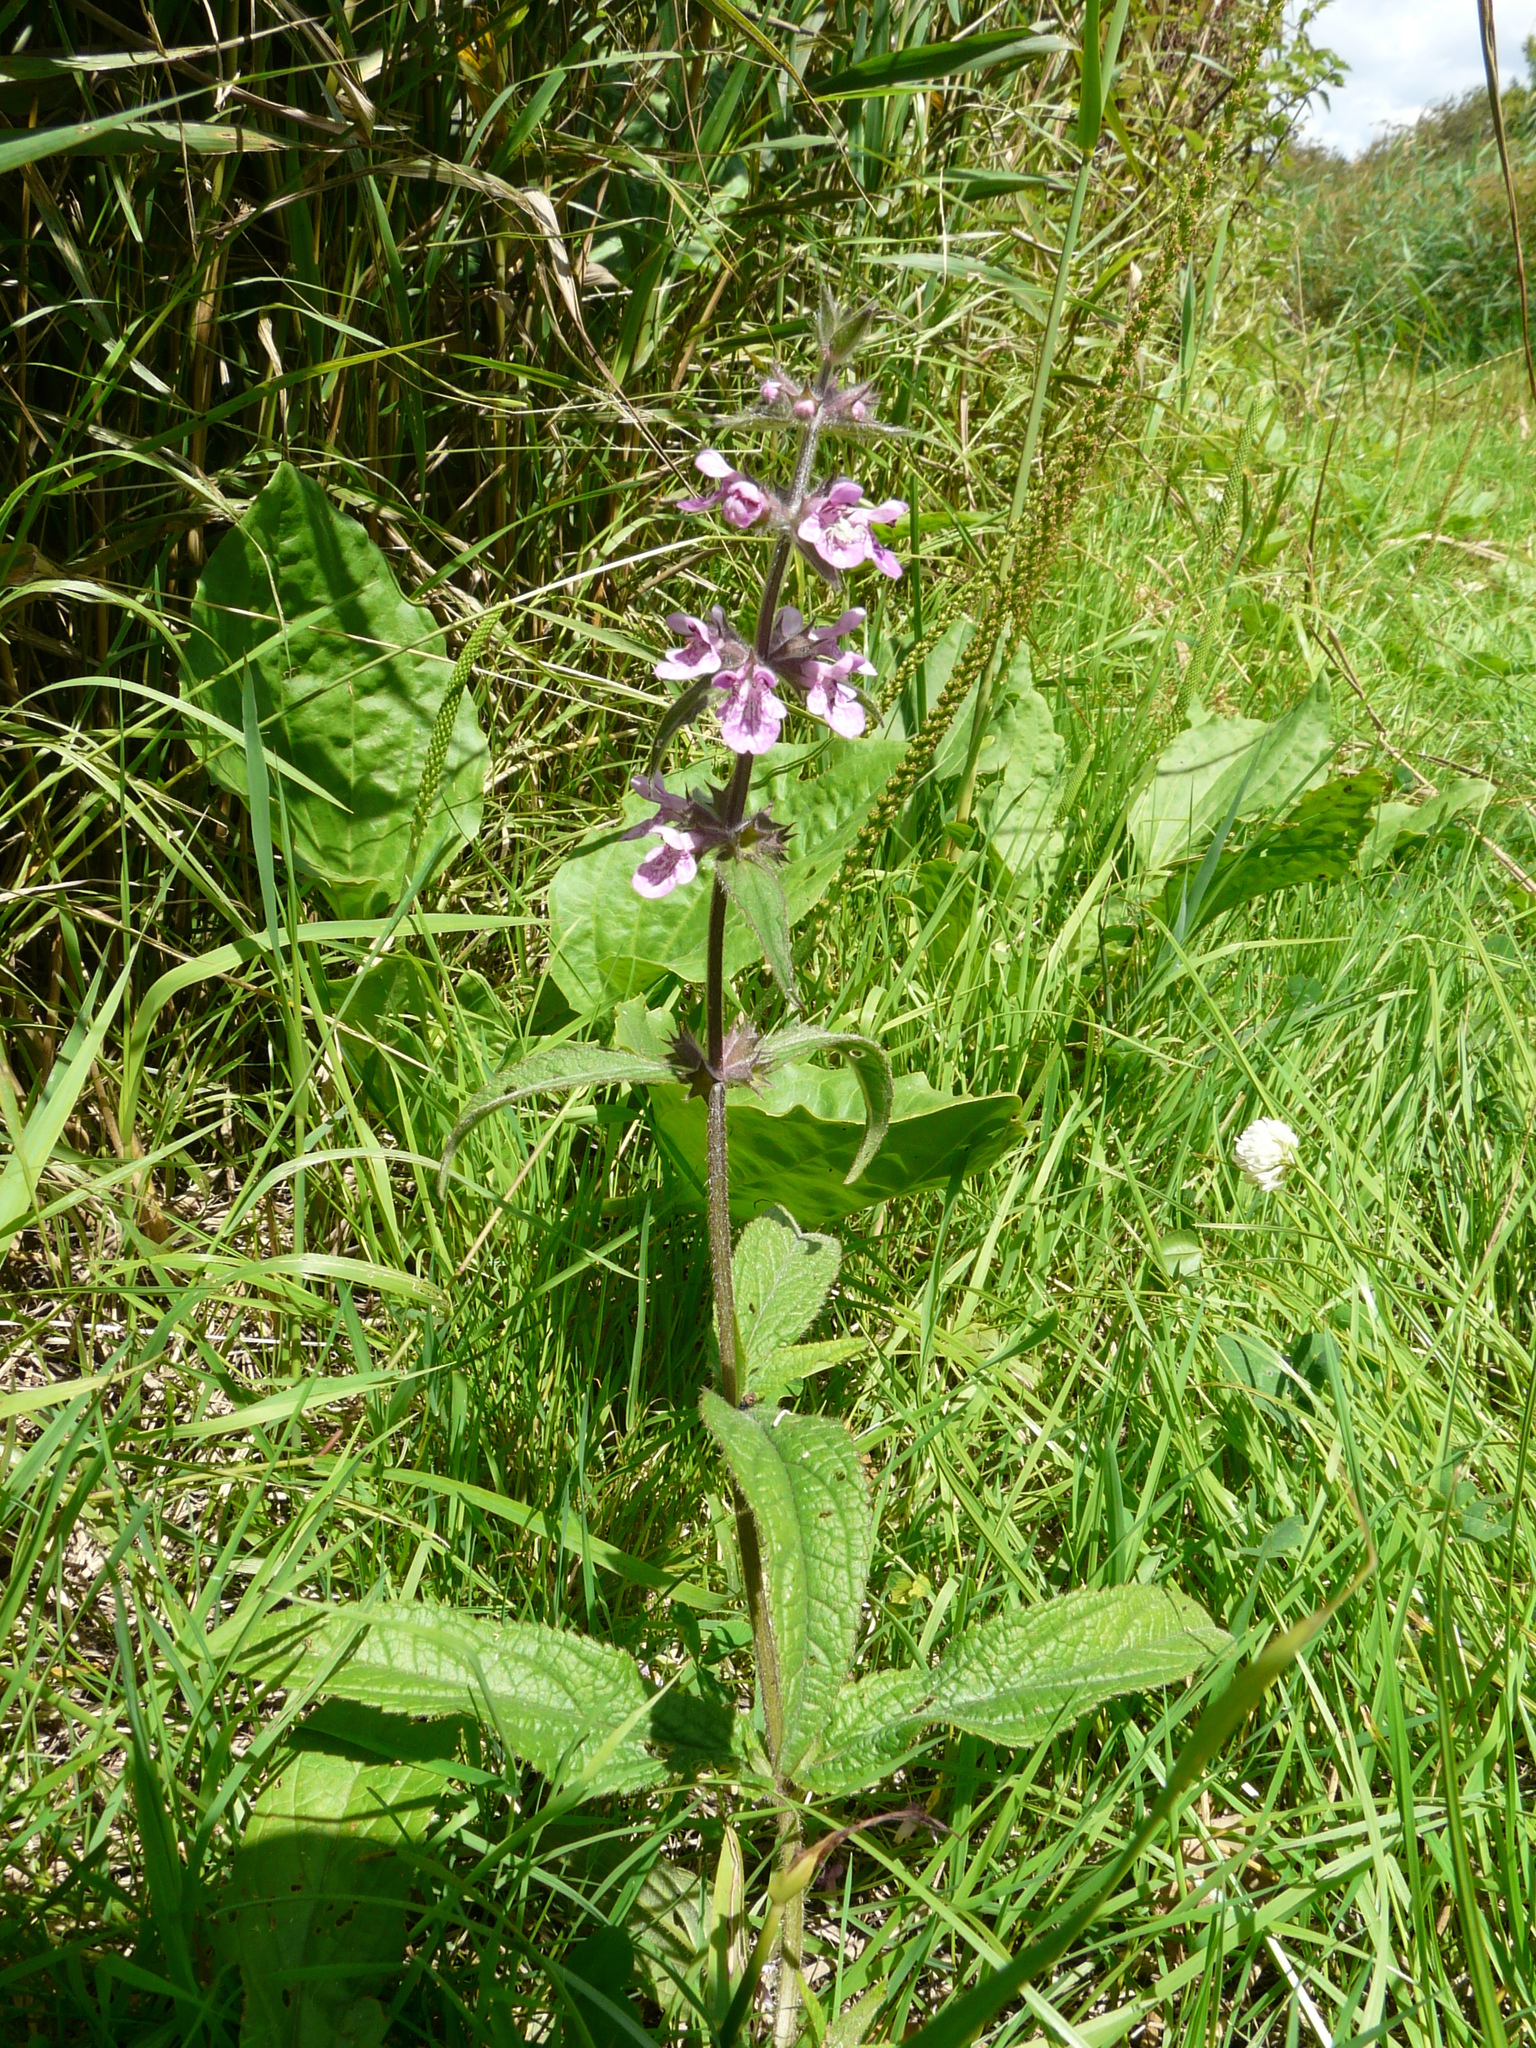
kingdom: Plantae
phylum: Tracheophyta
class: Magnoliopsida
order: Lamiales
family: Lamiaceae
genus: Stachys
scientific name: Stachys palustris
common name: Marsh woundwort
